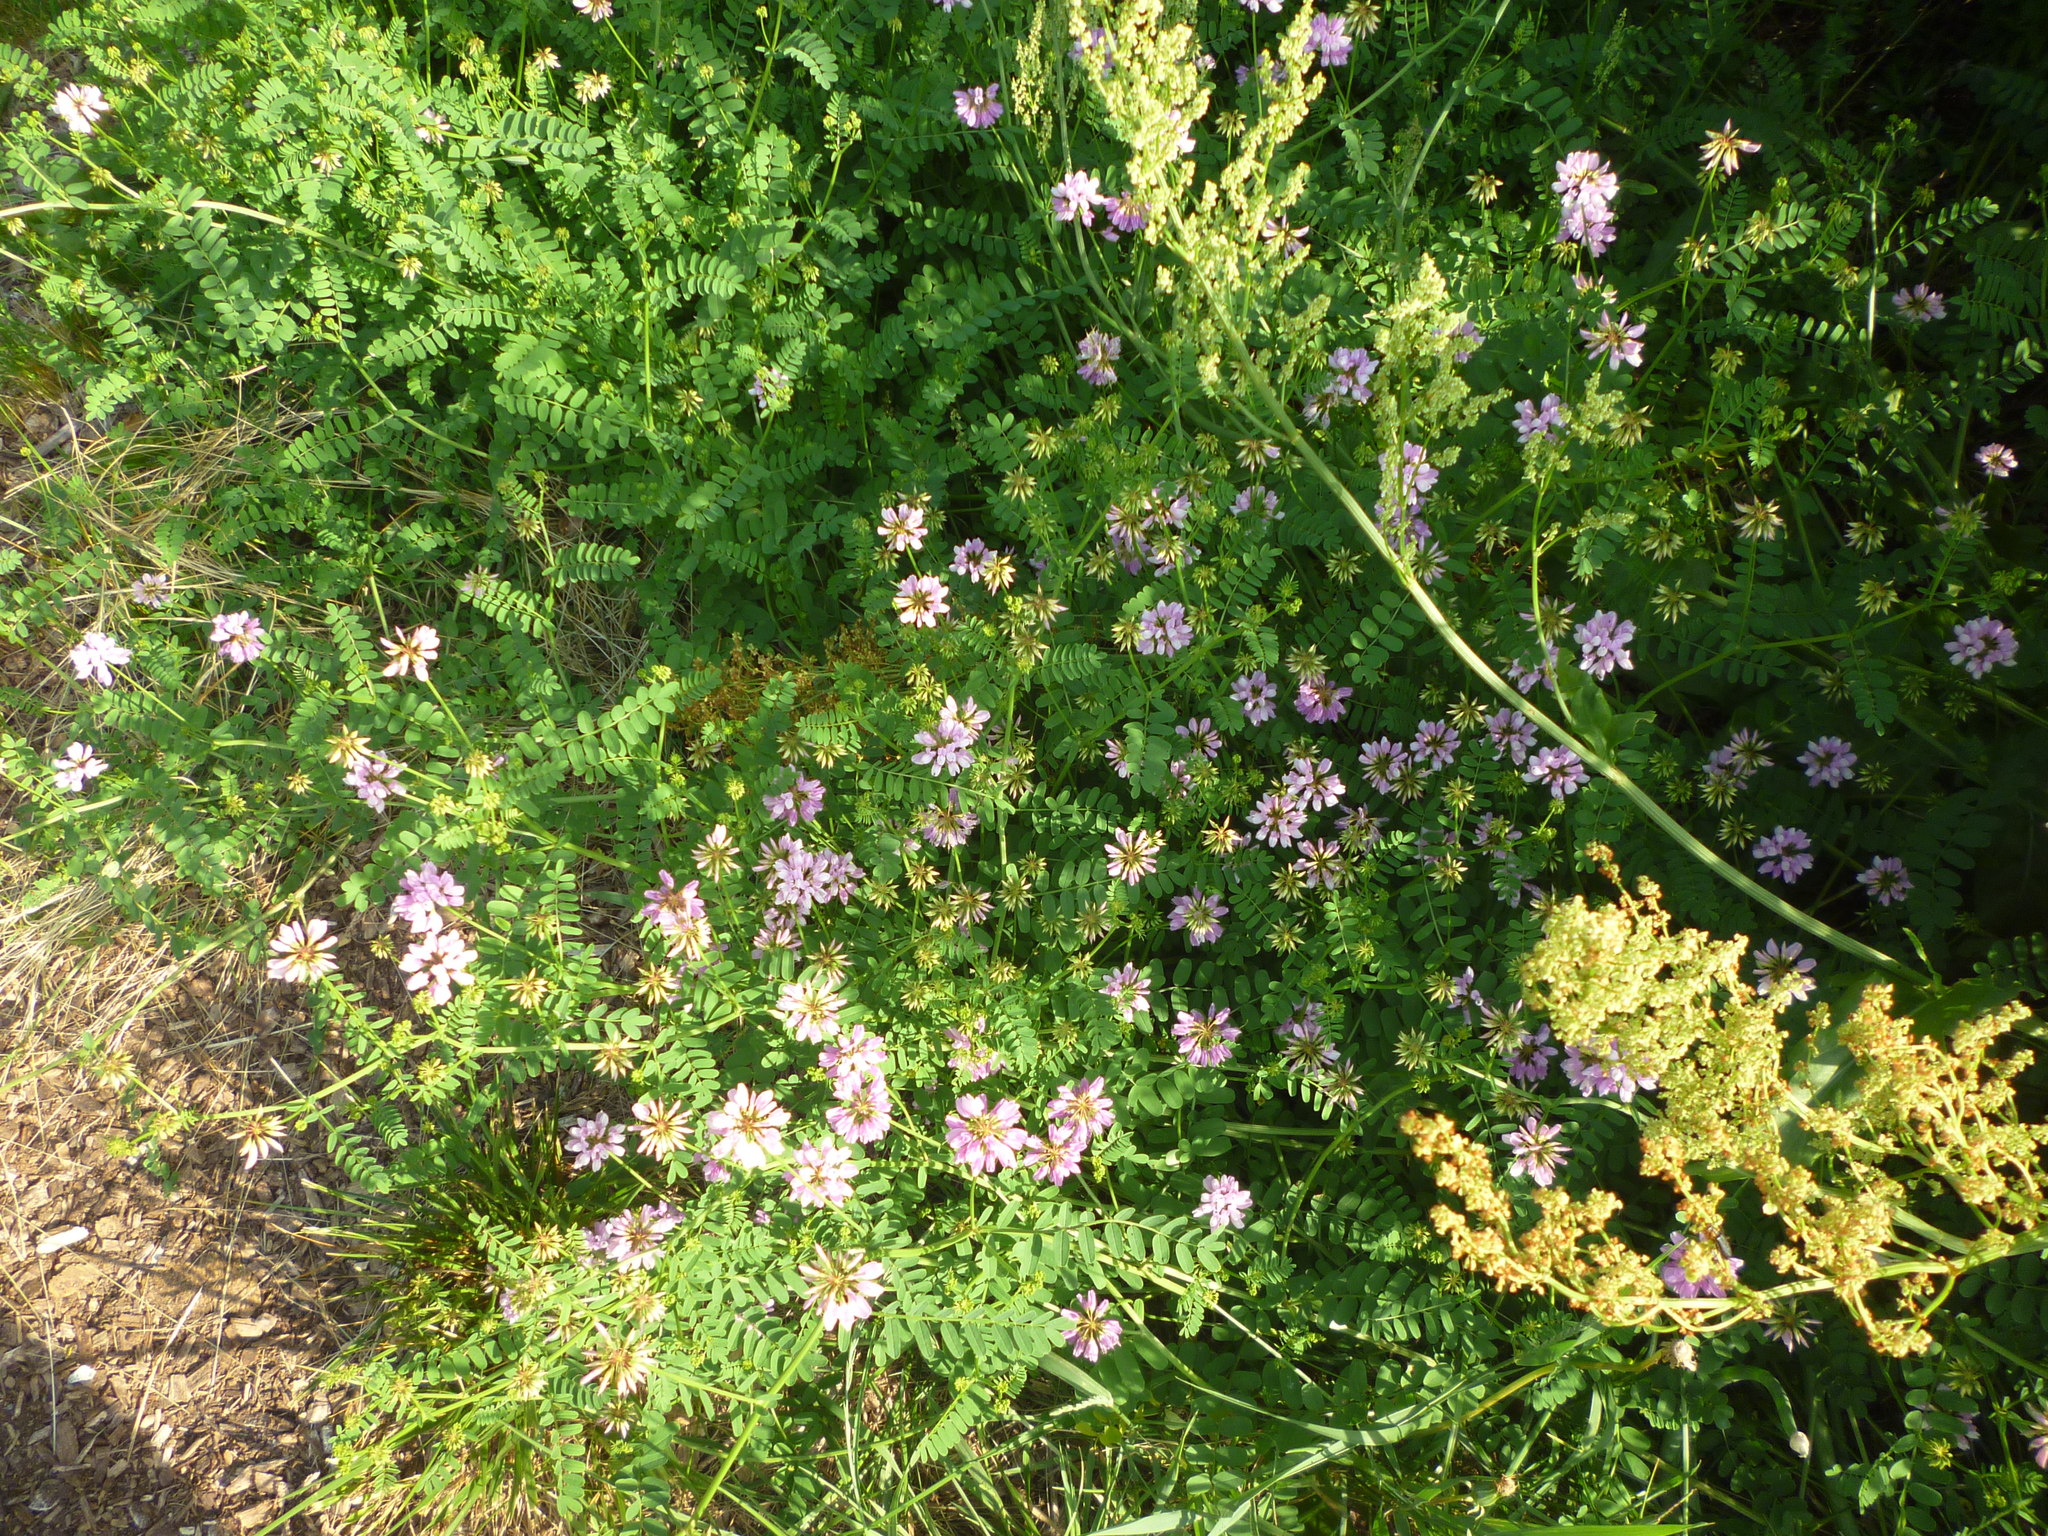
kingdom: Plantae
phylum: Tracheophyta
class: Magnoliopsida
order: Fabales
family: Fabaceae
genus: Coronilla
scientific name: Coronilla varia
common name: Crownvetch
